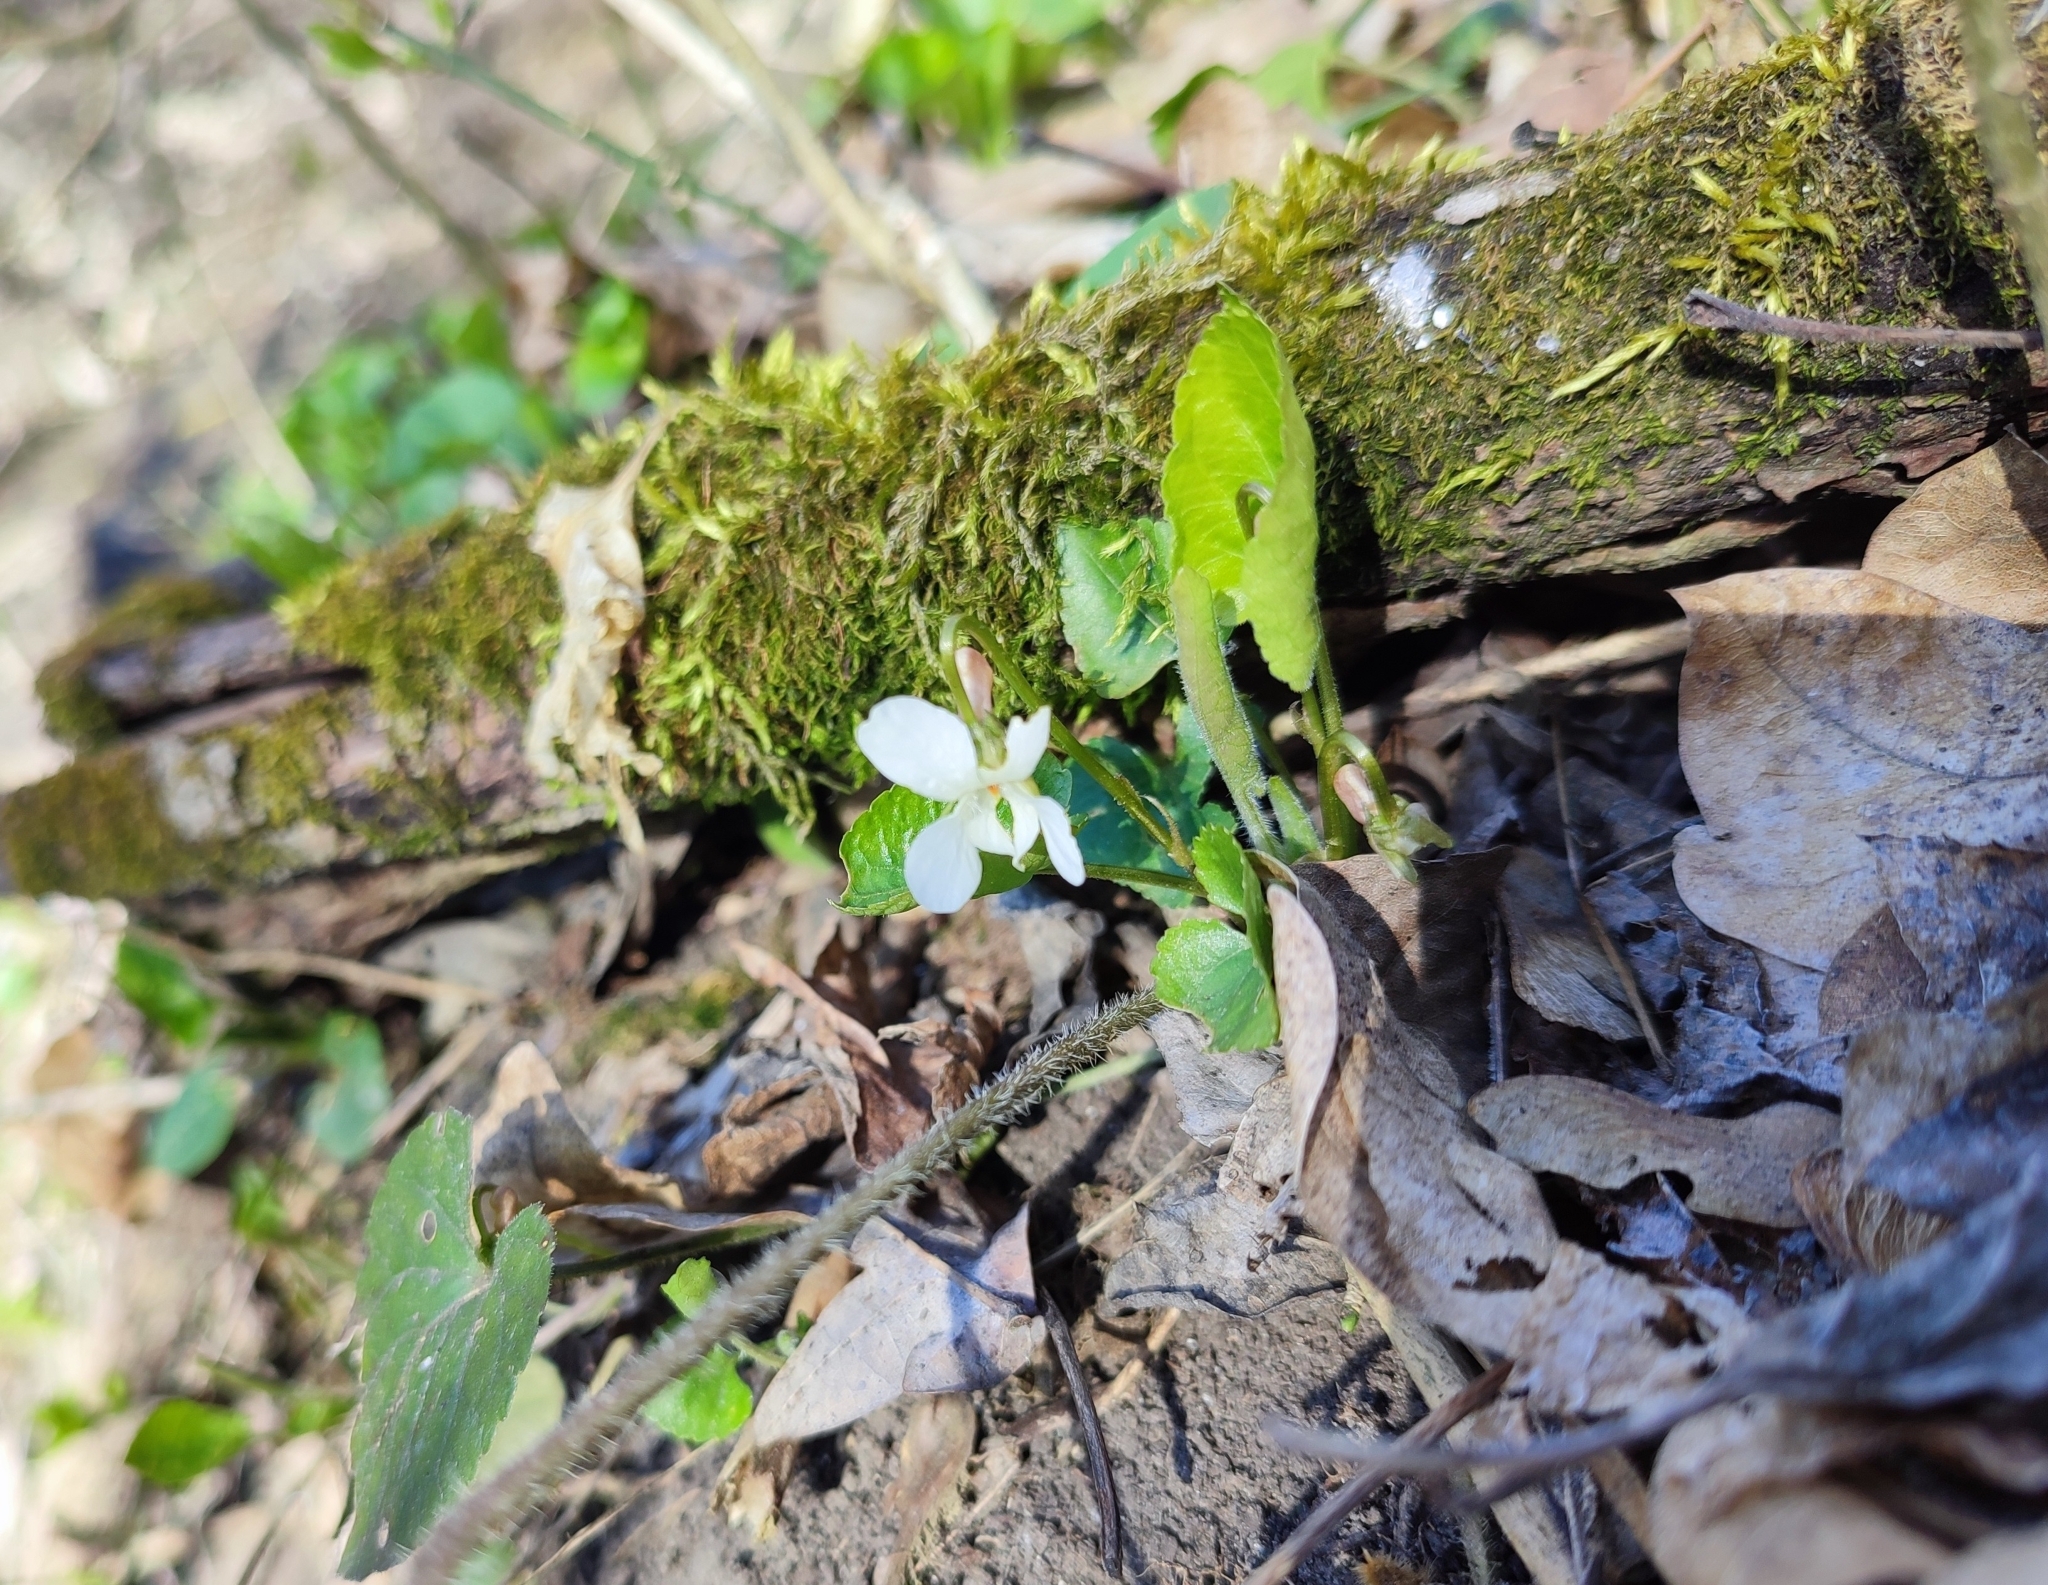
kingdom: Plantae
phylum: Tracheophyta
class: Magnoliopsida
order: Malpighiales
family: Violaceae
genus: Viola
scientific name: Viola alba
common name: White violet
